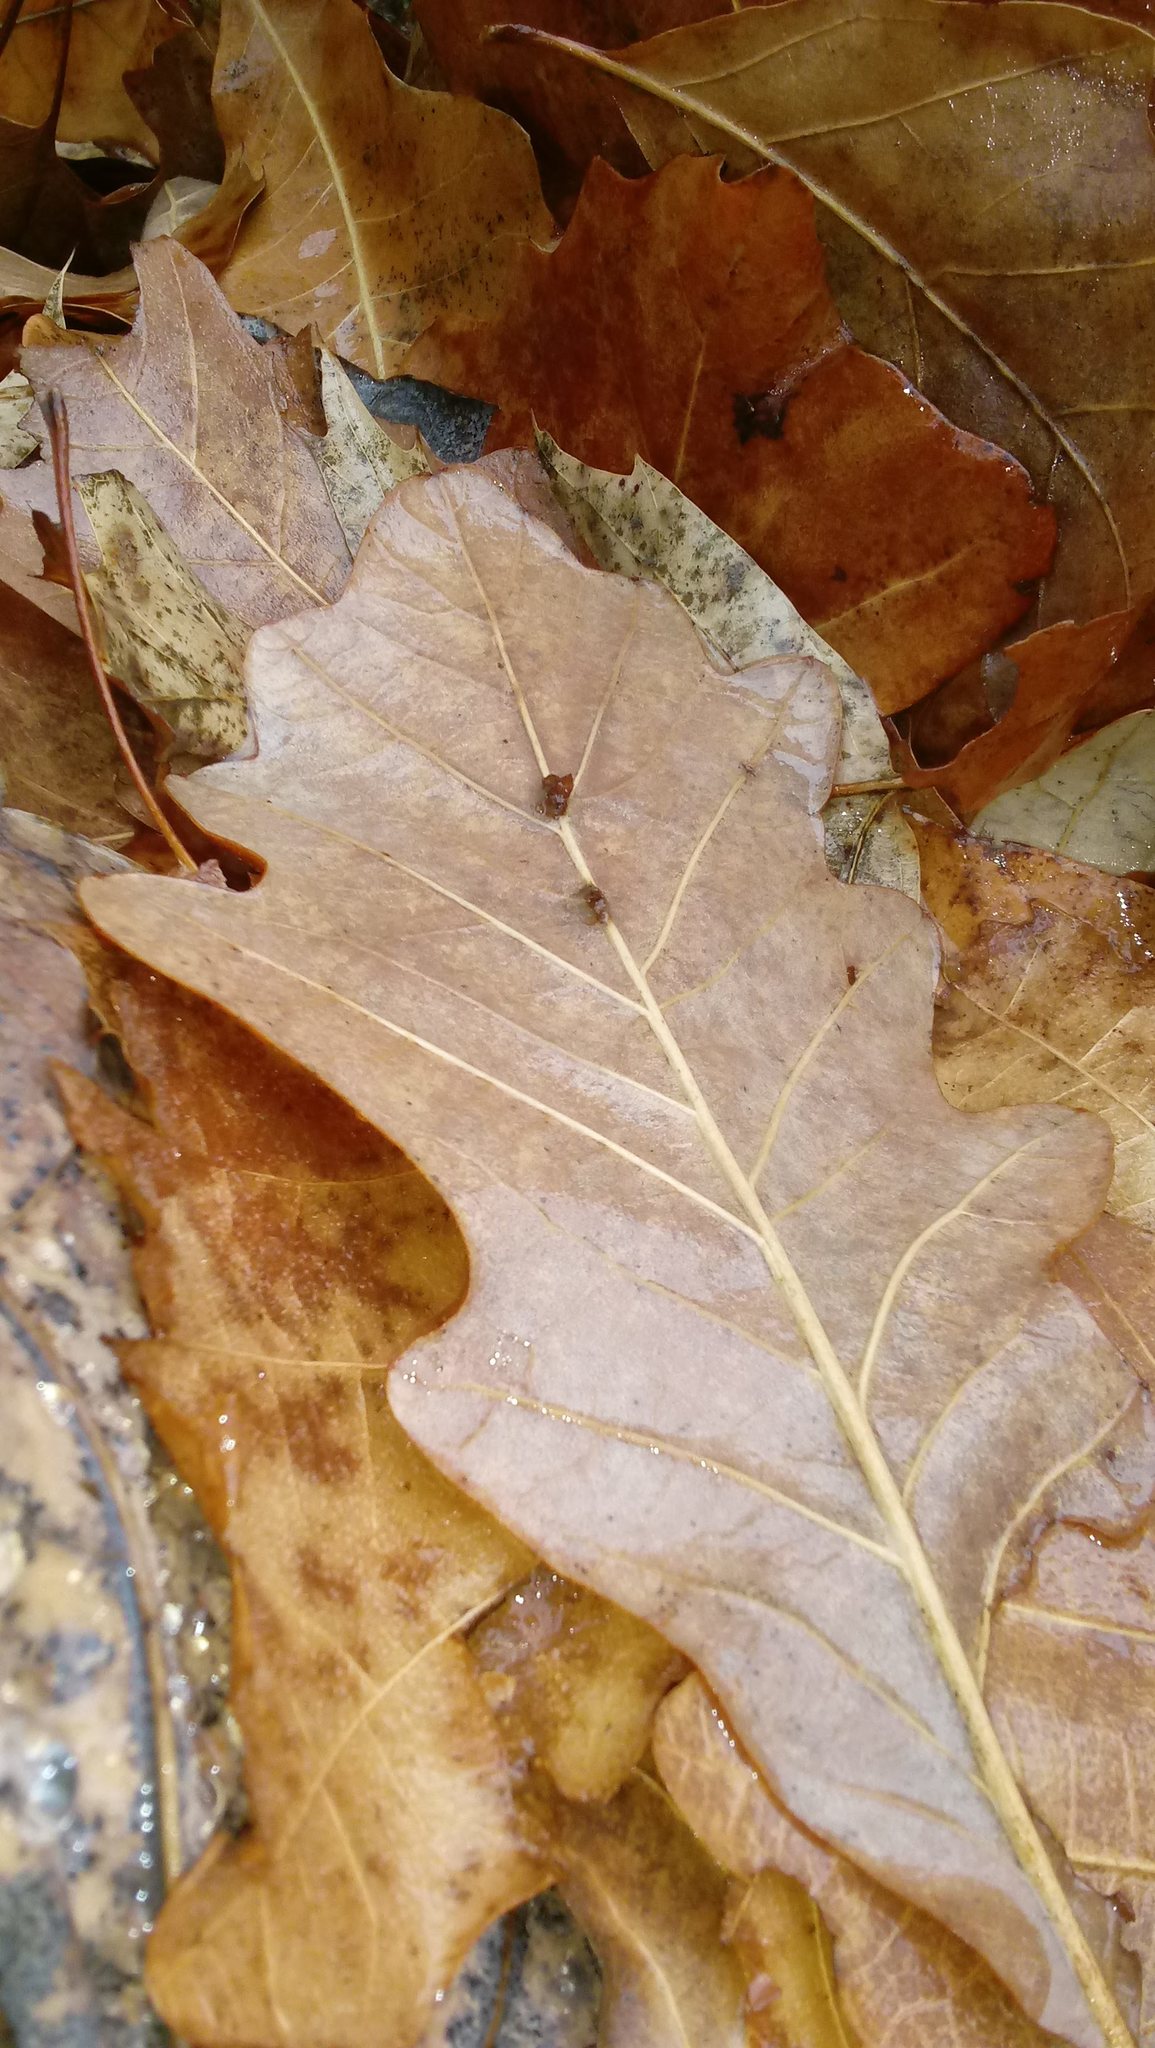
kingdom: Animalia
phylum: Arthropoda
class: Insecta
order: Hymenoptera
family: Cynipidae
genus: Andricus
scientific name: Andricus Druon ignotum
